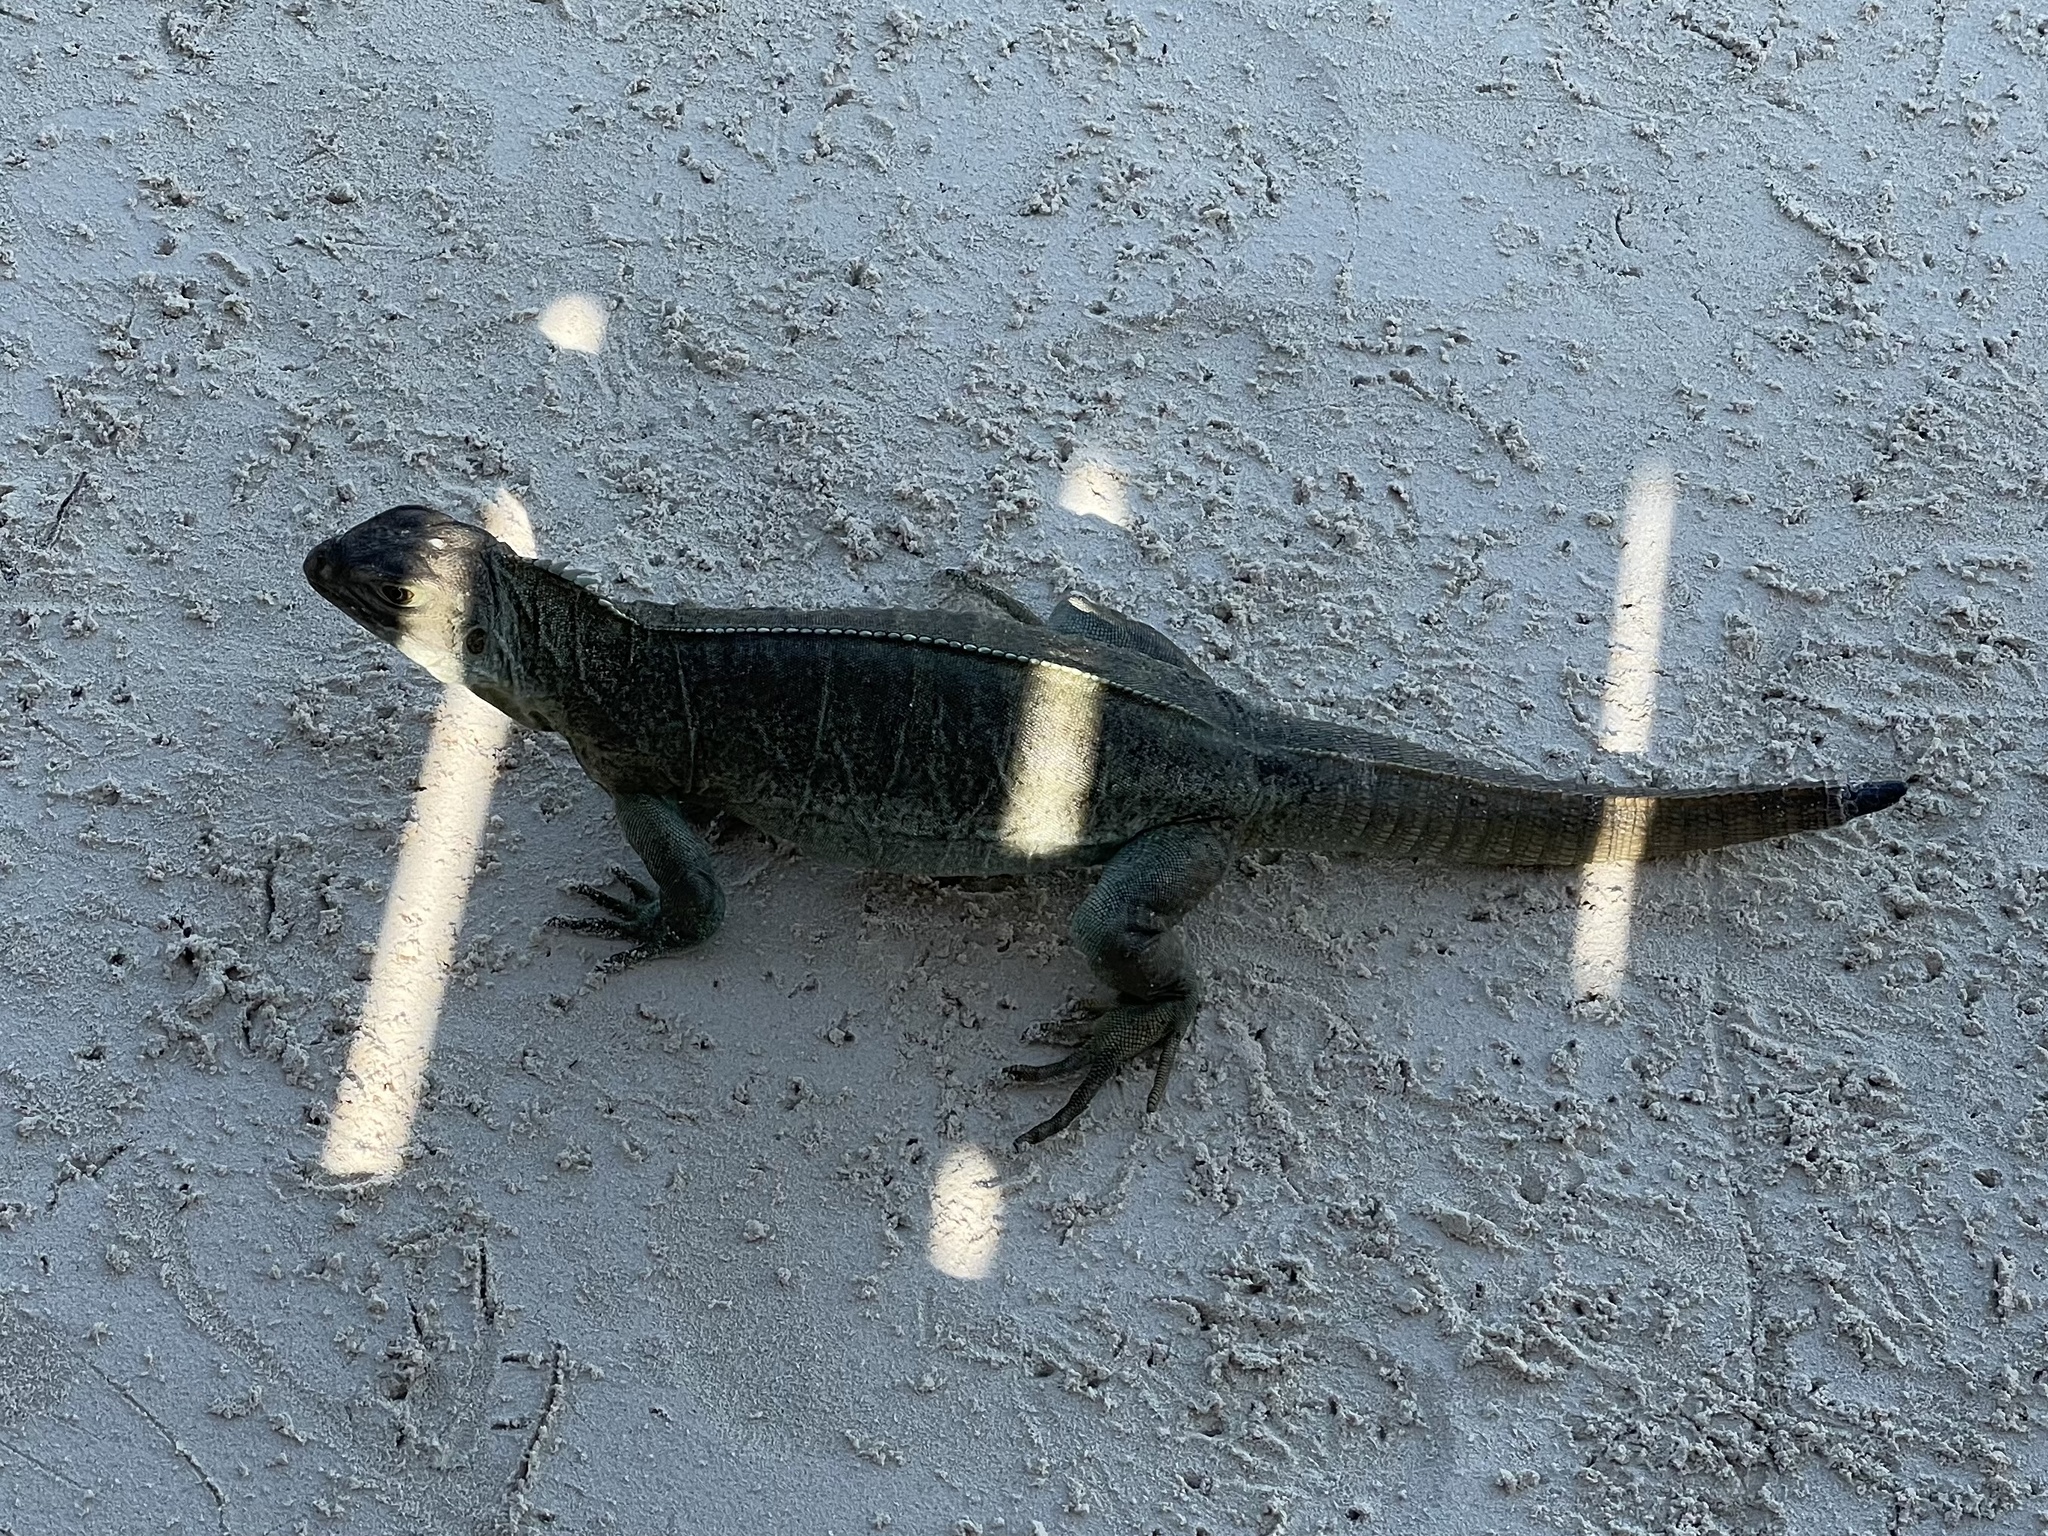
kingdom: Animalia
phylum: Chordata
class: Squamata
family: Iguanidae
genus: Cyclura
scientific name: Cyclura carinata
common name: Turks island iguana
